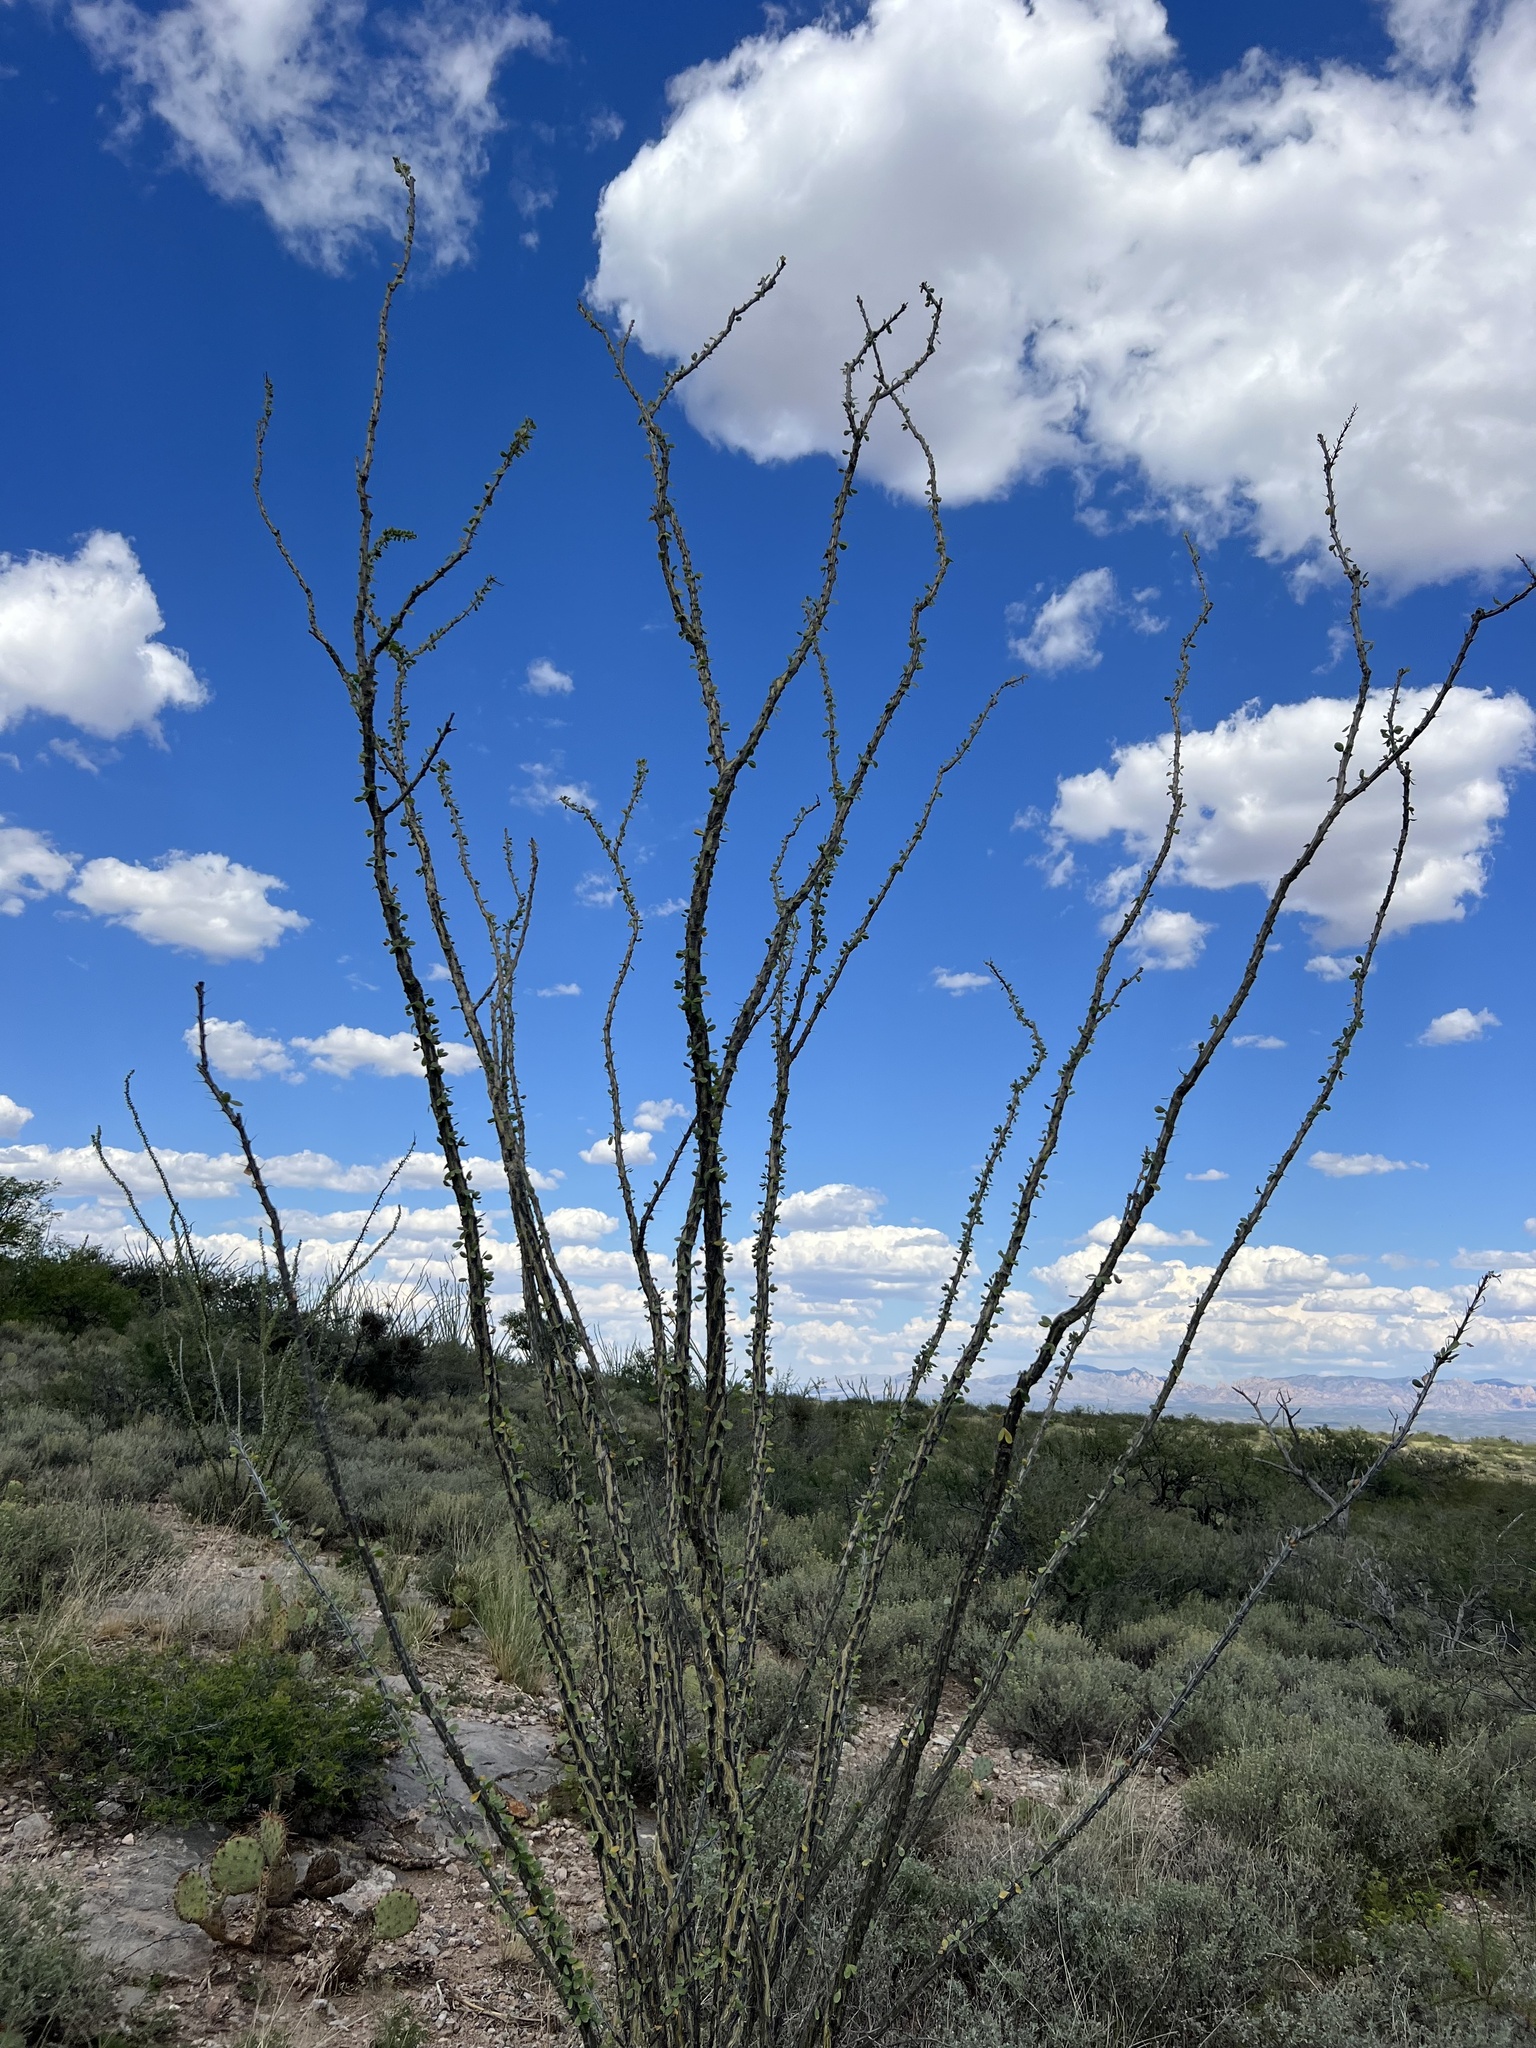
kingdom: Plantae
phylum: Tracheophyta
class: Magnoliopsida
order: Ericales
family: Fouquieriaceae
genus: Fouquieria
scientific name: Fouquieria splendens
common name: Vine-cactus
